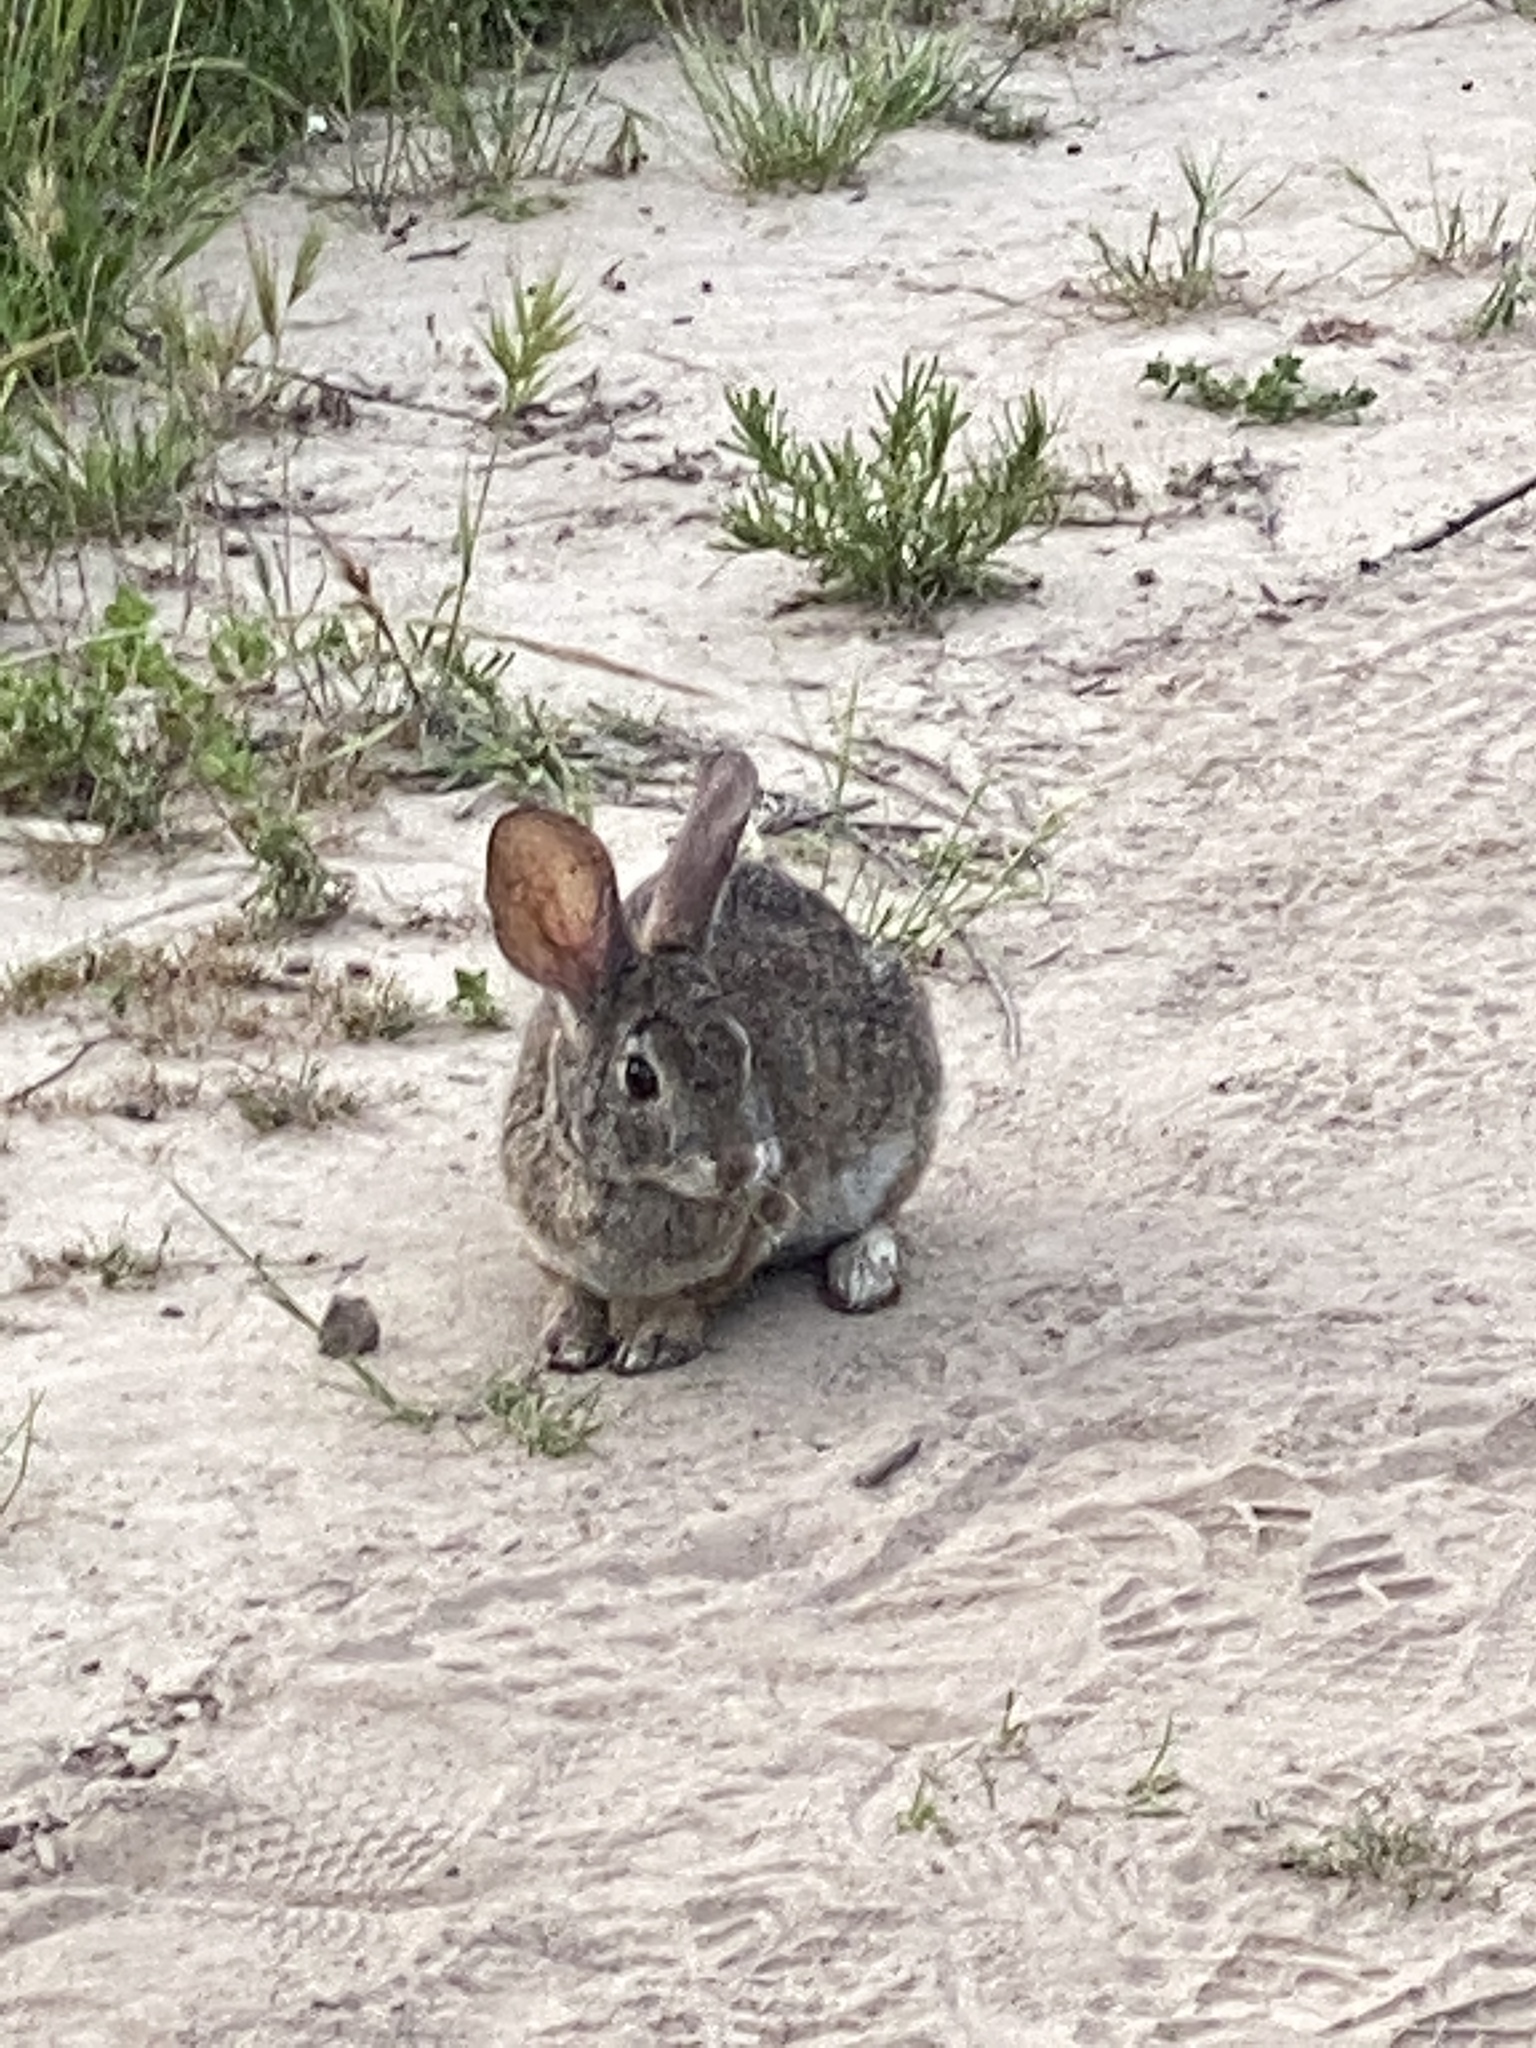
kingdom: Animalia
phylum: Chordata
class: Mammalia
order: Lagomorpha
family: Leporidae
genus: Sylvilagus
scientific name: Sylvilagus bachmani
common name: Brush rabbit
